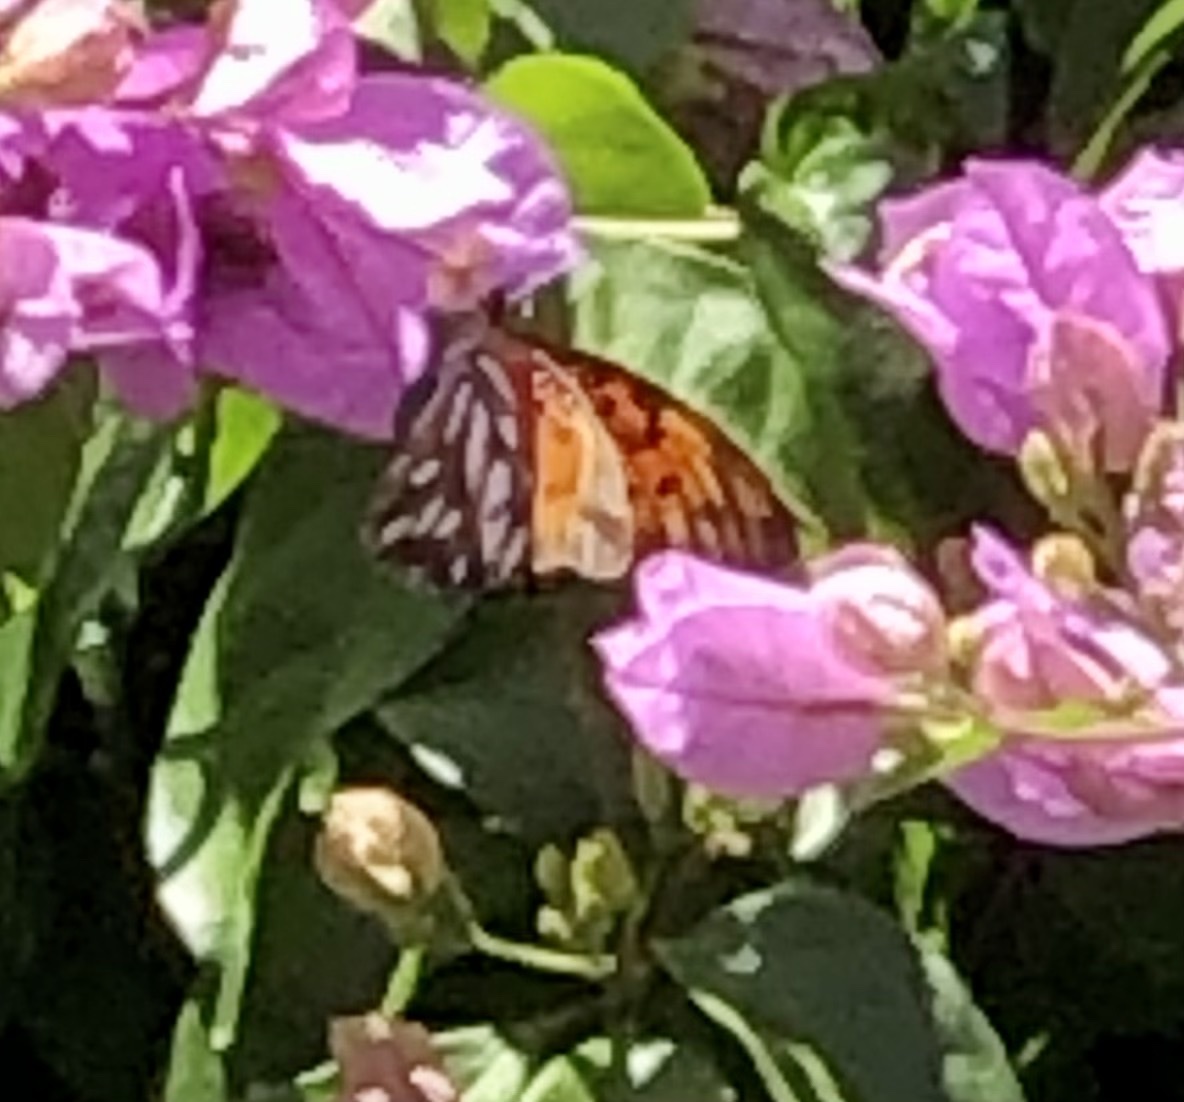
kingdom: Animalia
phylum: Arthropoda
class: Insecta
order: Lepidoptera
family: Nymphalidae
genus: Dione
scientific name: Dione vanillae
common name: Gulf fritillary
